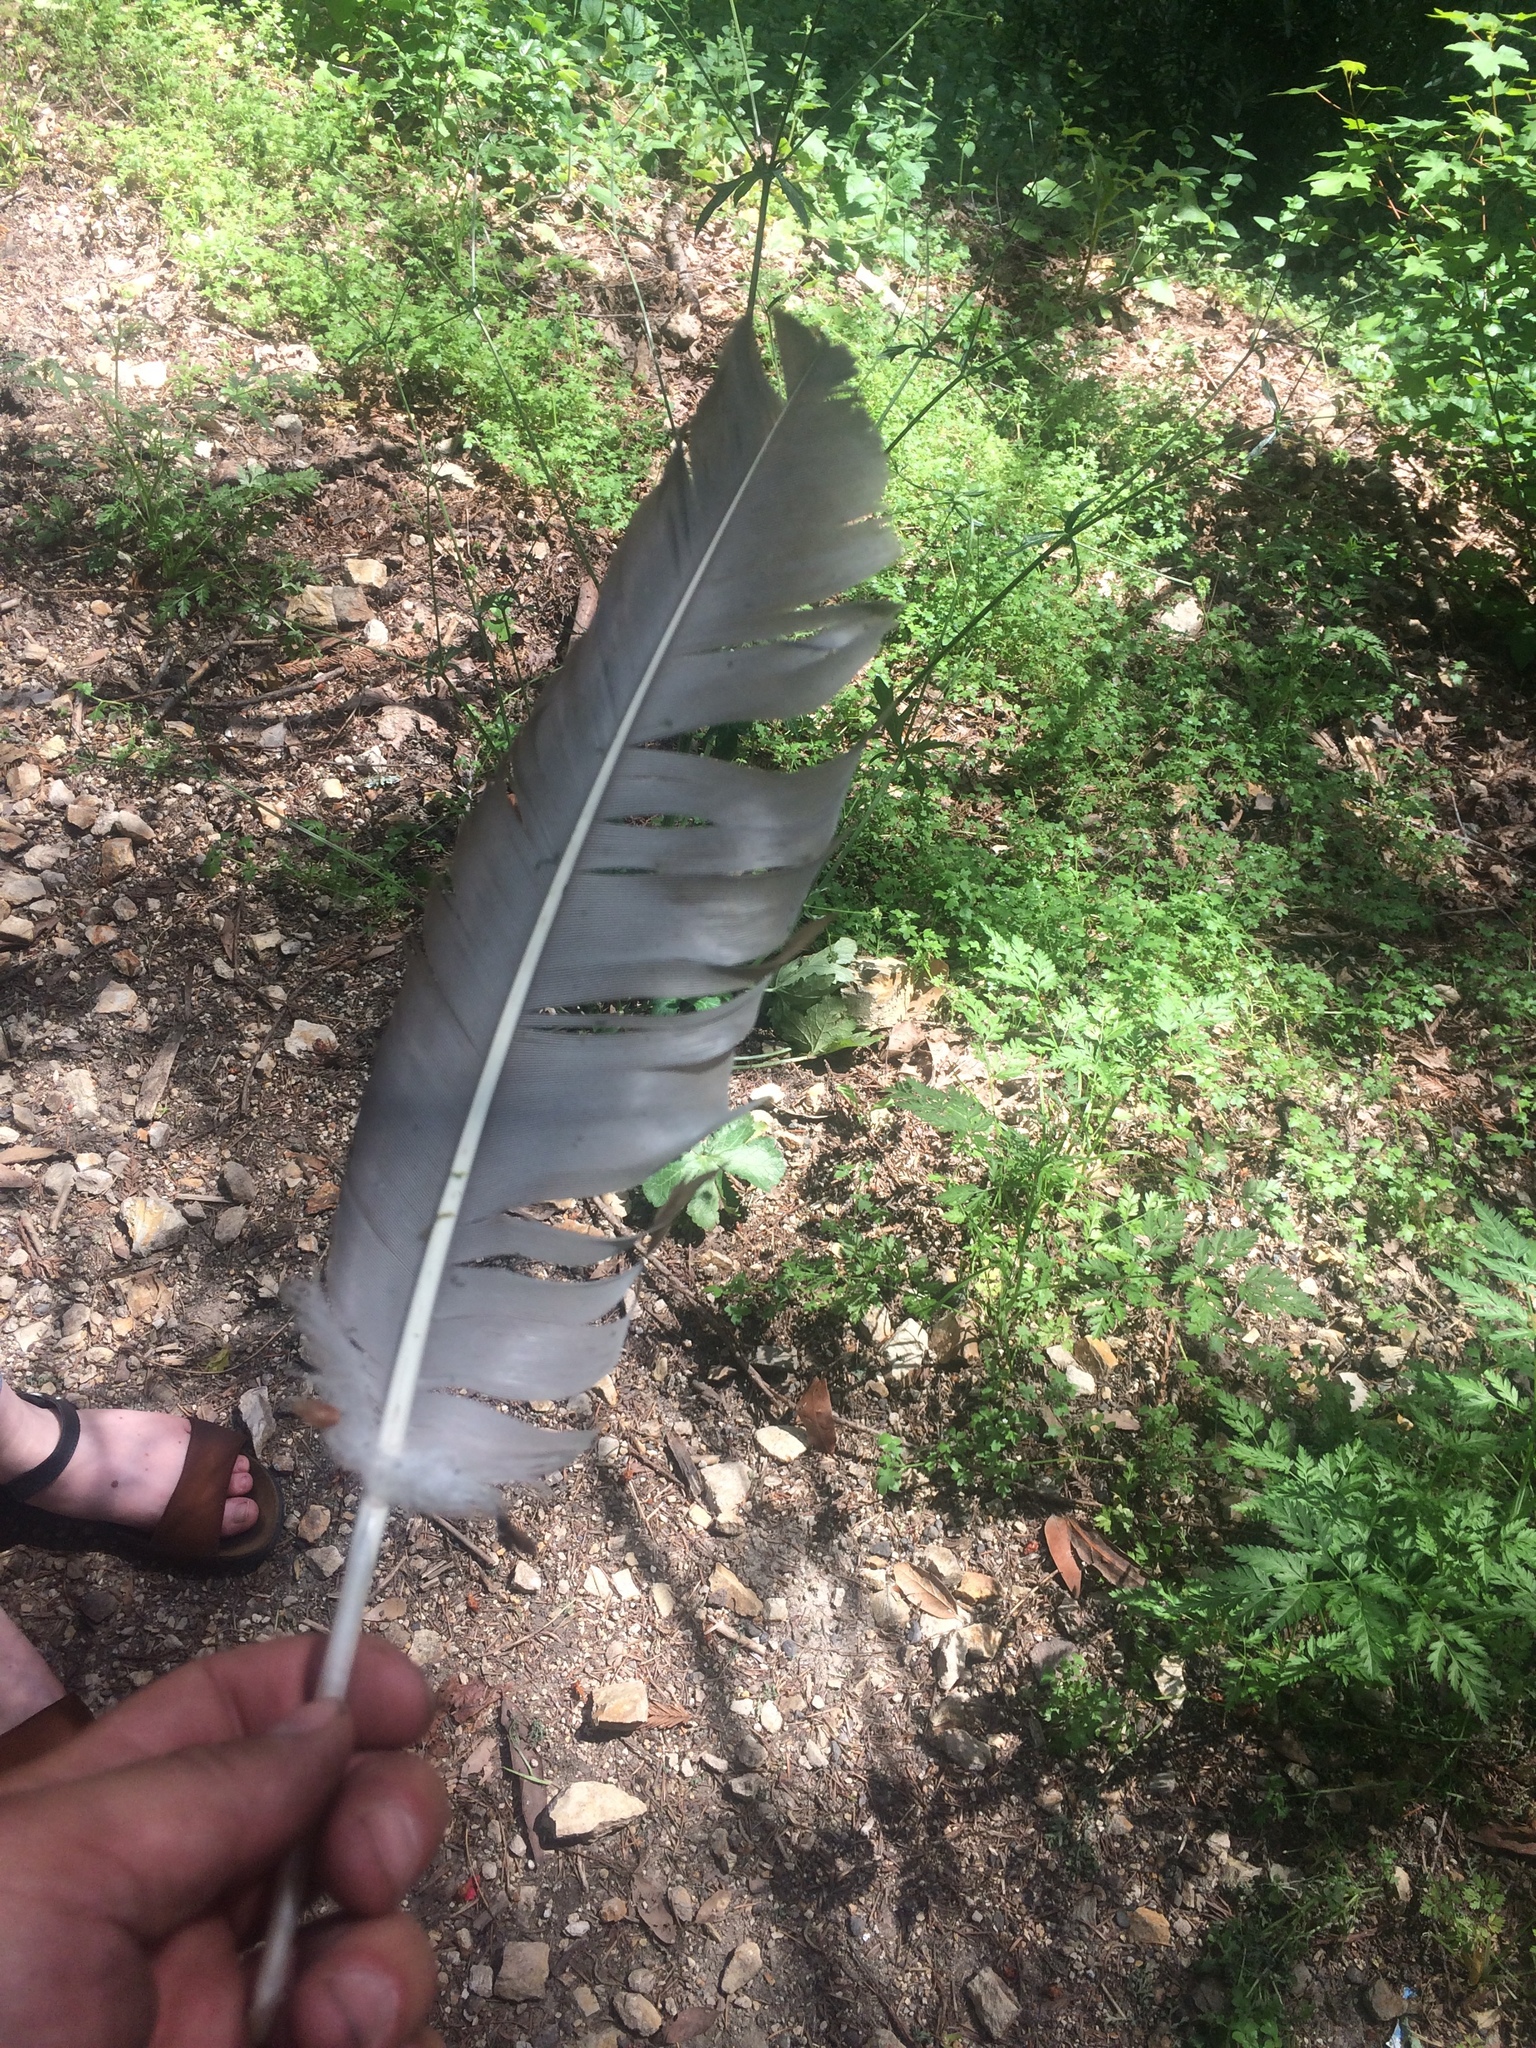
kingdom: Animalia
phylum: Chordata
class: Aves
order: Accipitriformes
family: Cathartidae
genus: Cathartes
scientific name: Cathartes aura
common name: Turkey vulture
